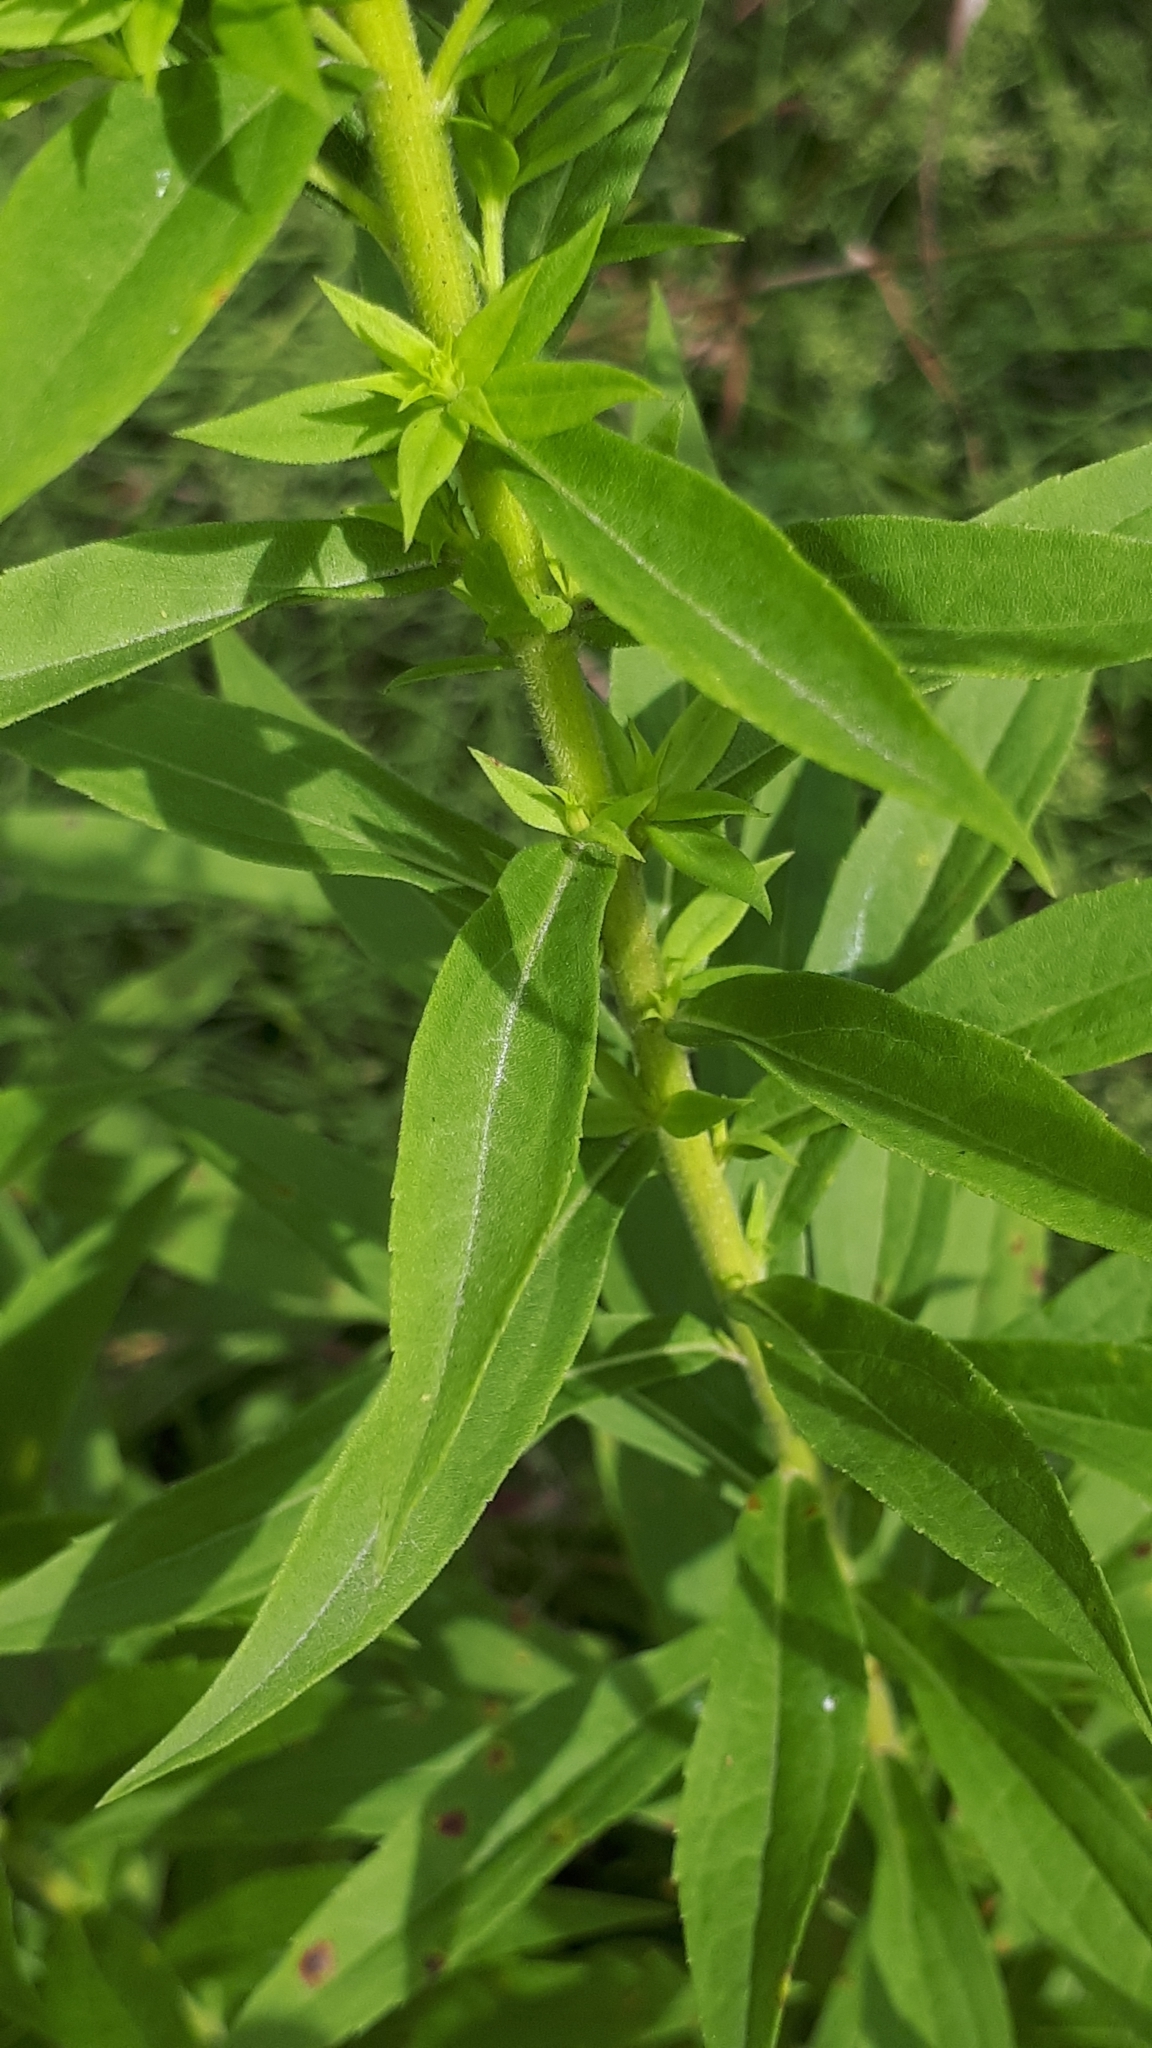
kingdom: Plantae
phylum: Tracheophyta
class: Magnoliopsida
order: Asterales
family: Asteraceae
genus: Solidago
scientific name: Solidago canadensis
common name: Canada goldenrod
